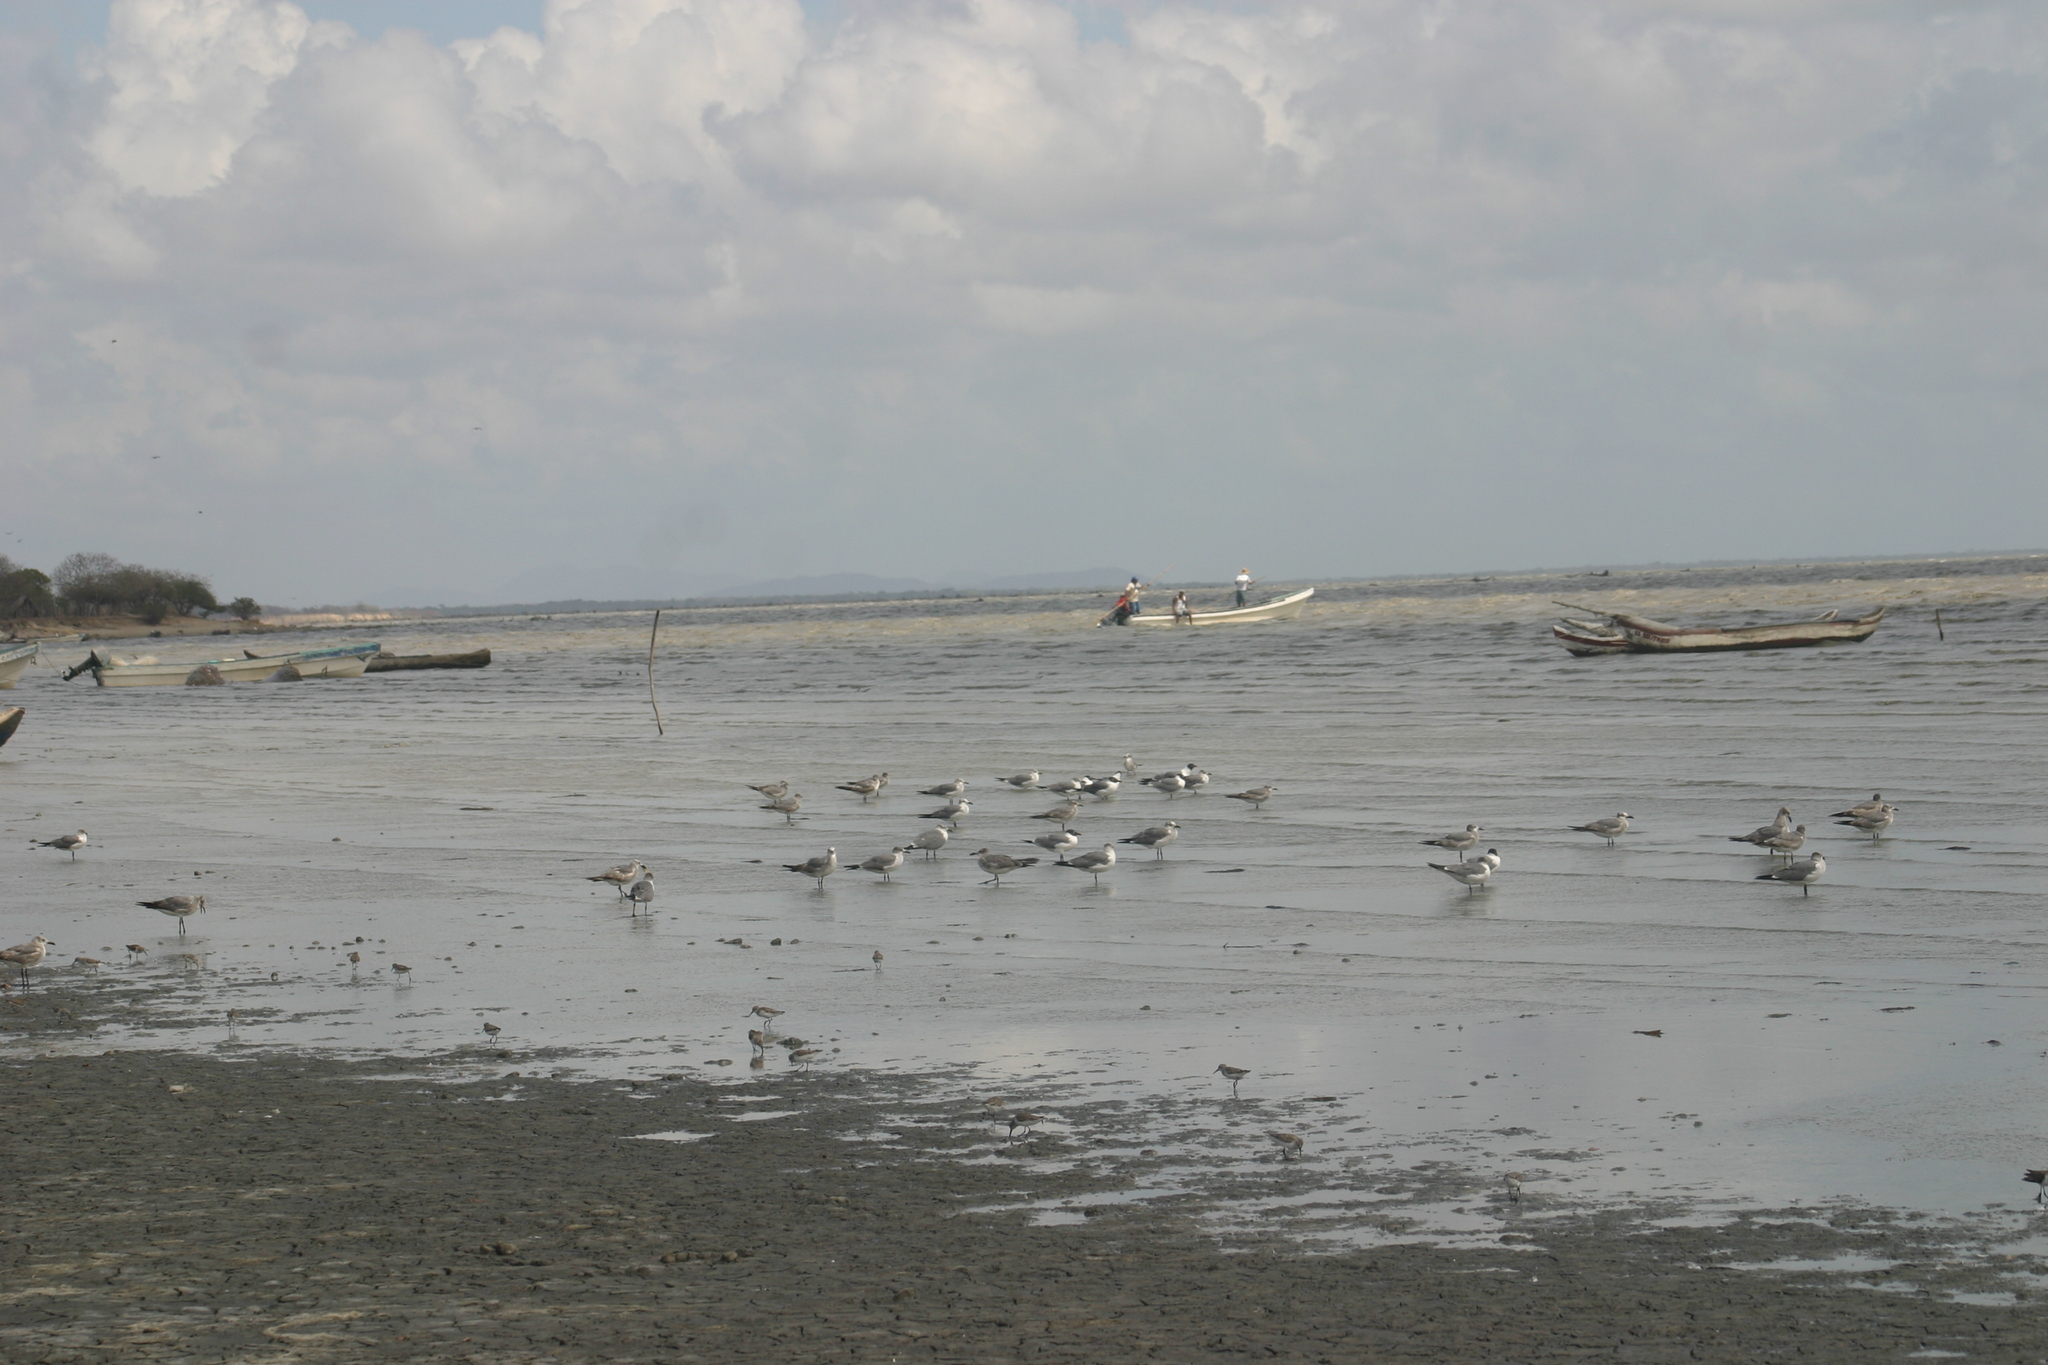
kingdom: Animalia
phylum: Chordata
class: Aves
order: Charadriiformes
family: Laridae
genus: Leucophaeus
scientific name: Leucophaeus atricilla
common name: Laughing gull
